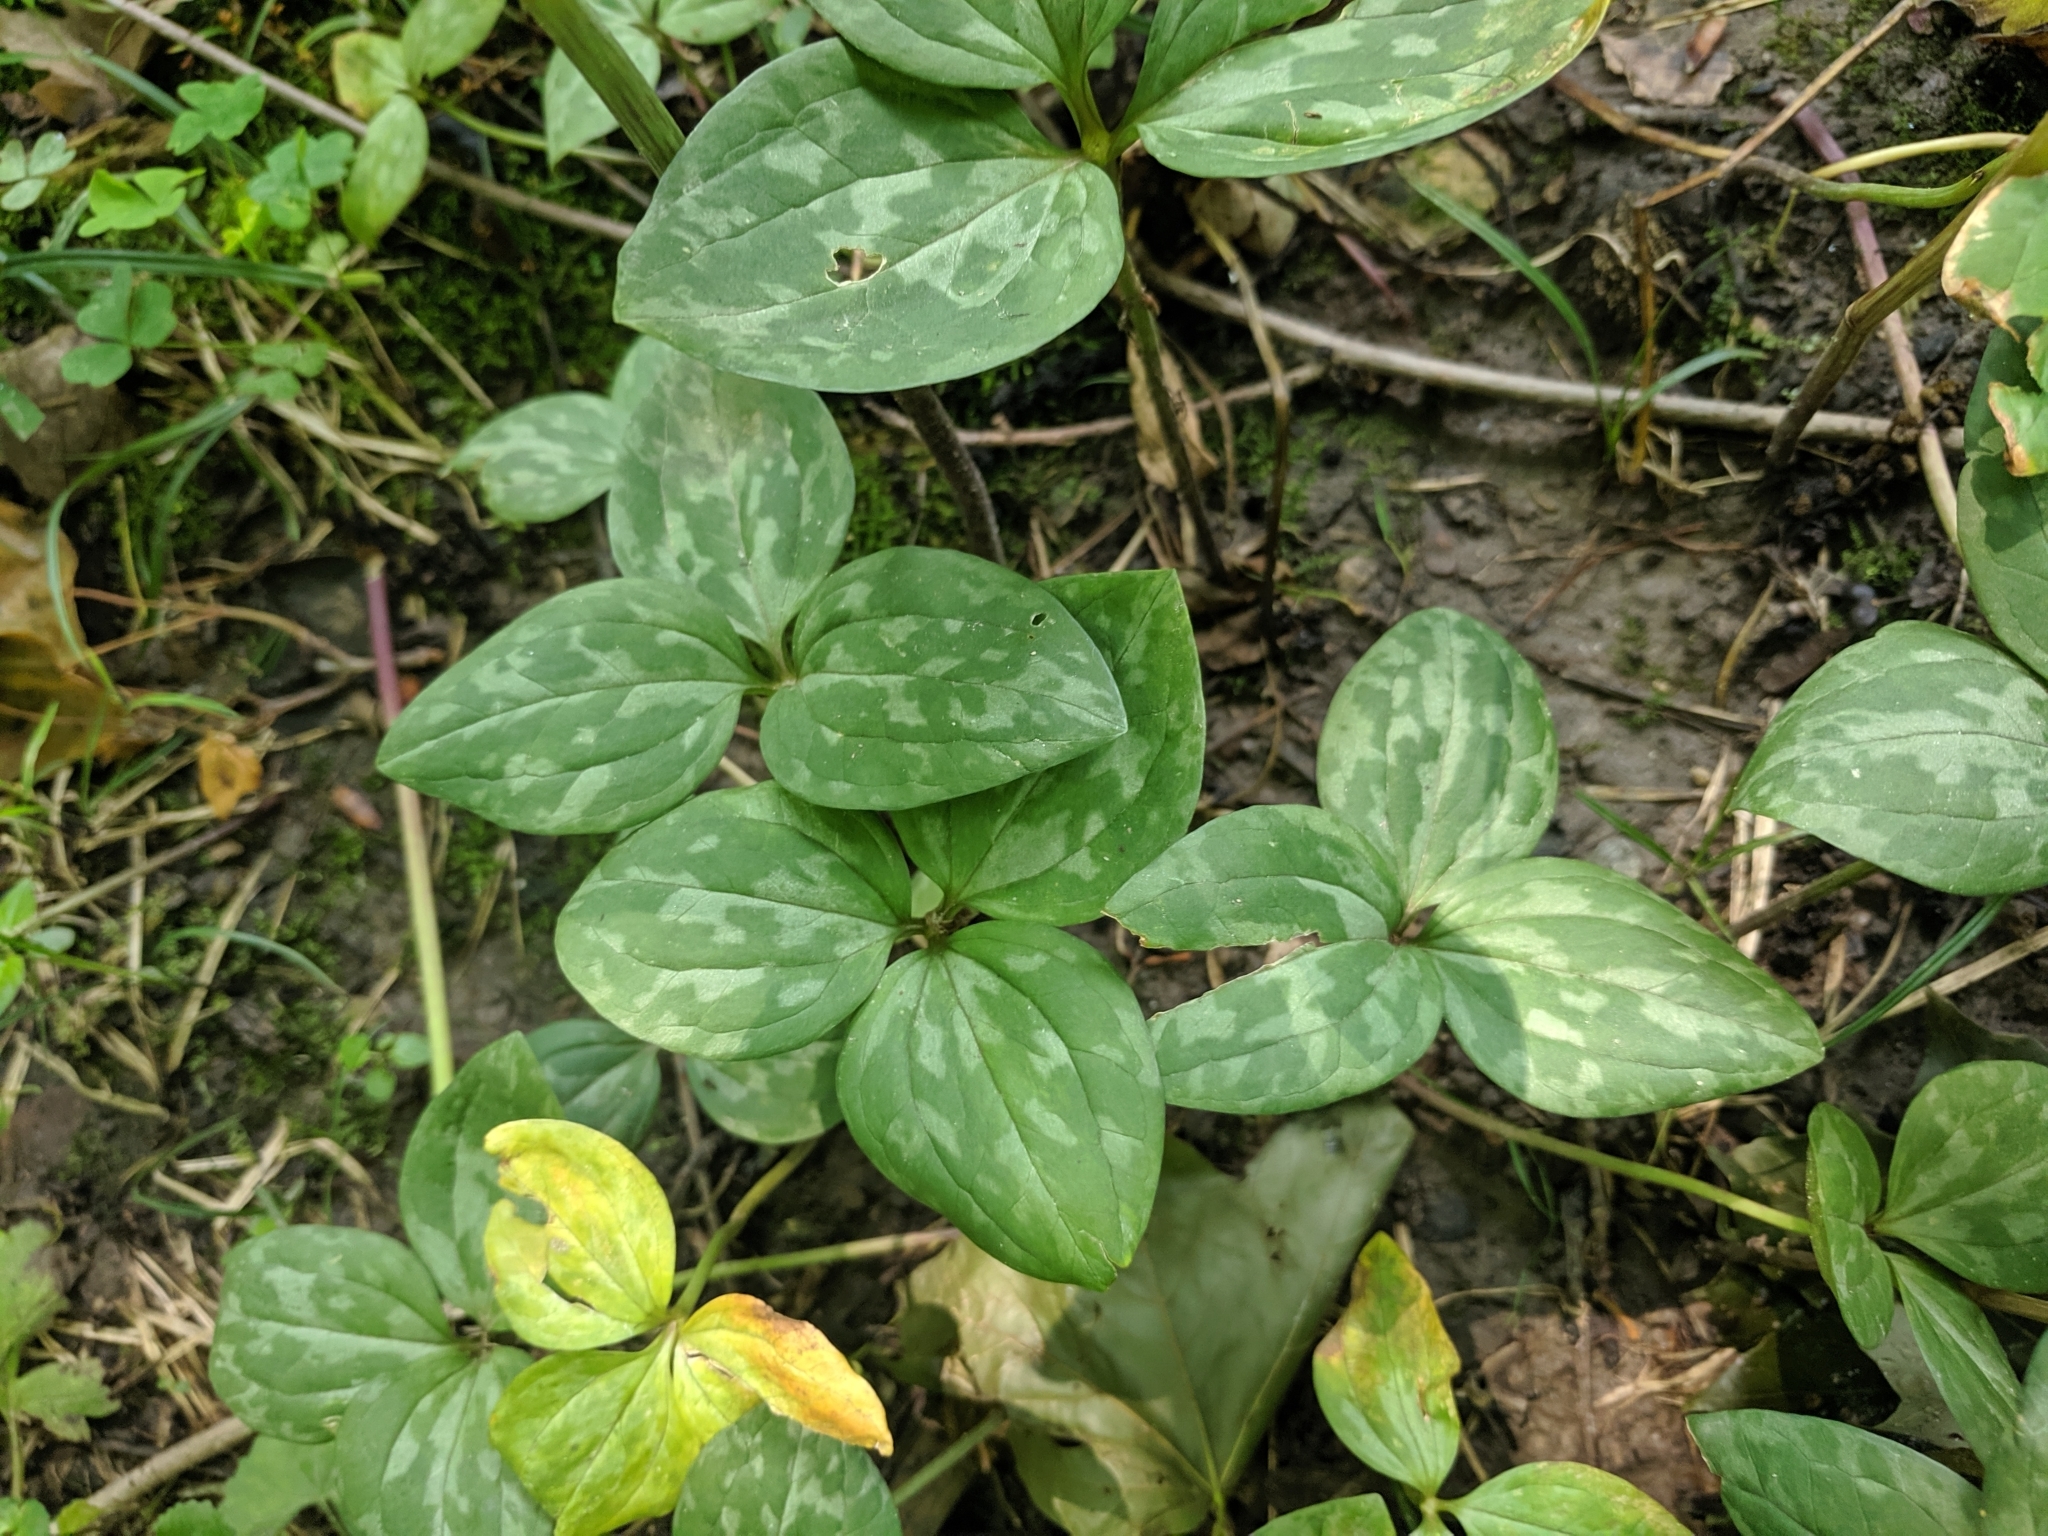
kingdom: Plantae
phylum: Tracheophyta
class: Liliopsida
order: Liliales
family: Melanthiaceae
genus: Trillium
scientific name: Trillium recurvatum
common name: Bloody butcher
